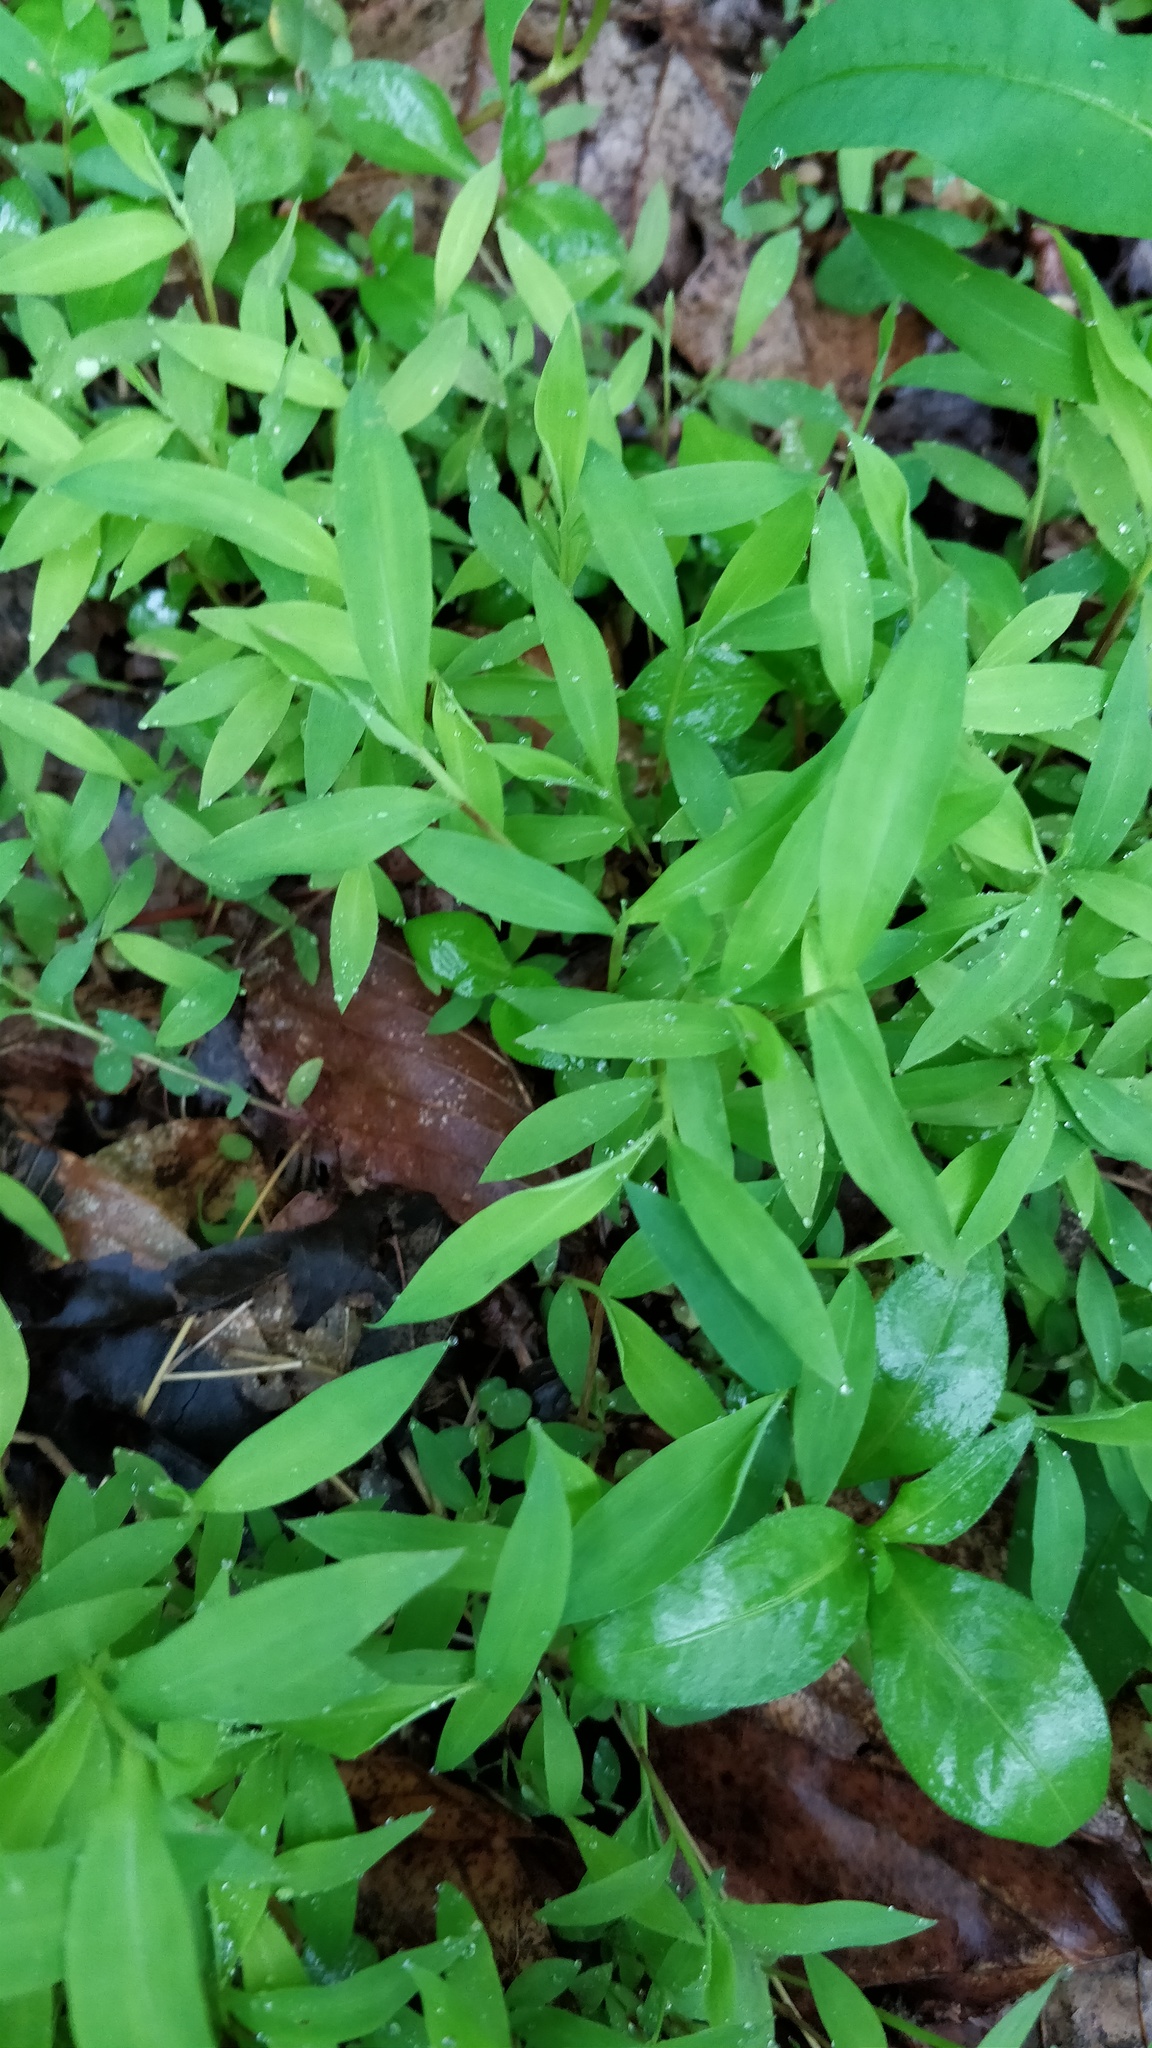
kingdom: Plantae
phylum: Tracheophyta
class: Liliopsida
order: Poales
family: Poaceae
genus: Microstegium
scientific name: Microstegium vimineum
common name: Japanese stiltgrass
